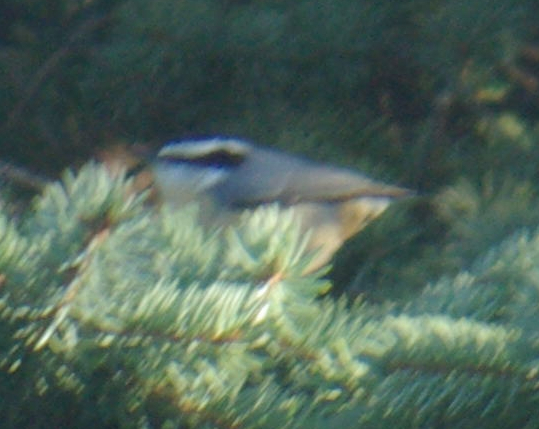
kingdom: Animalia
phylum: Chordata
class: Aves
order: Passeriformes
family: Sittidae
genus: Sitta
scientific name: Sitta canadensis
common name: Red-breasted nuthatch
